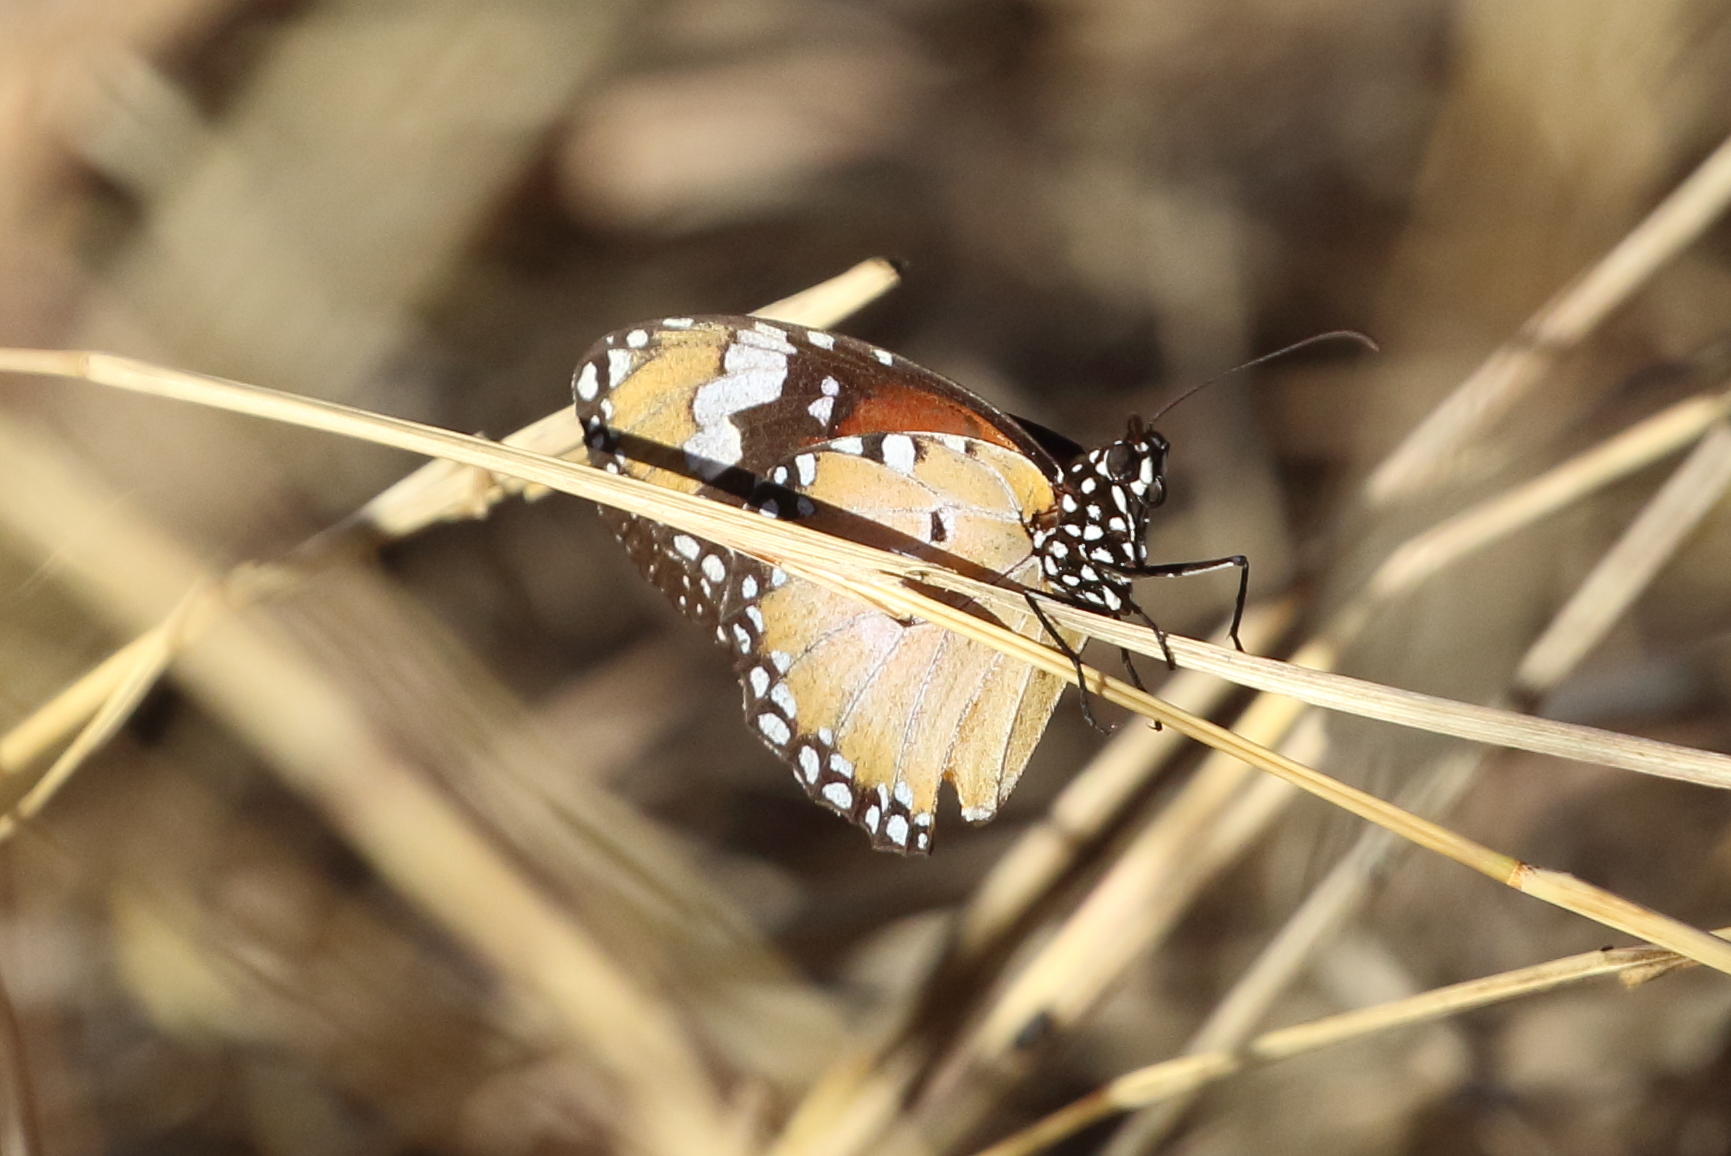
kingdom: Animalia
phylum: Arthropoda
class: Insecta
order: Lepidoptera
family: Nymphalidae
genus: Danaus
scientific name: Danaus chrysippus
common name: Plain tiger
